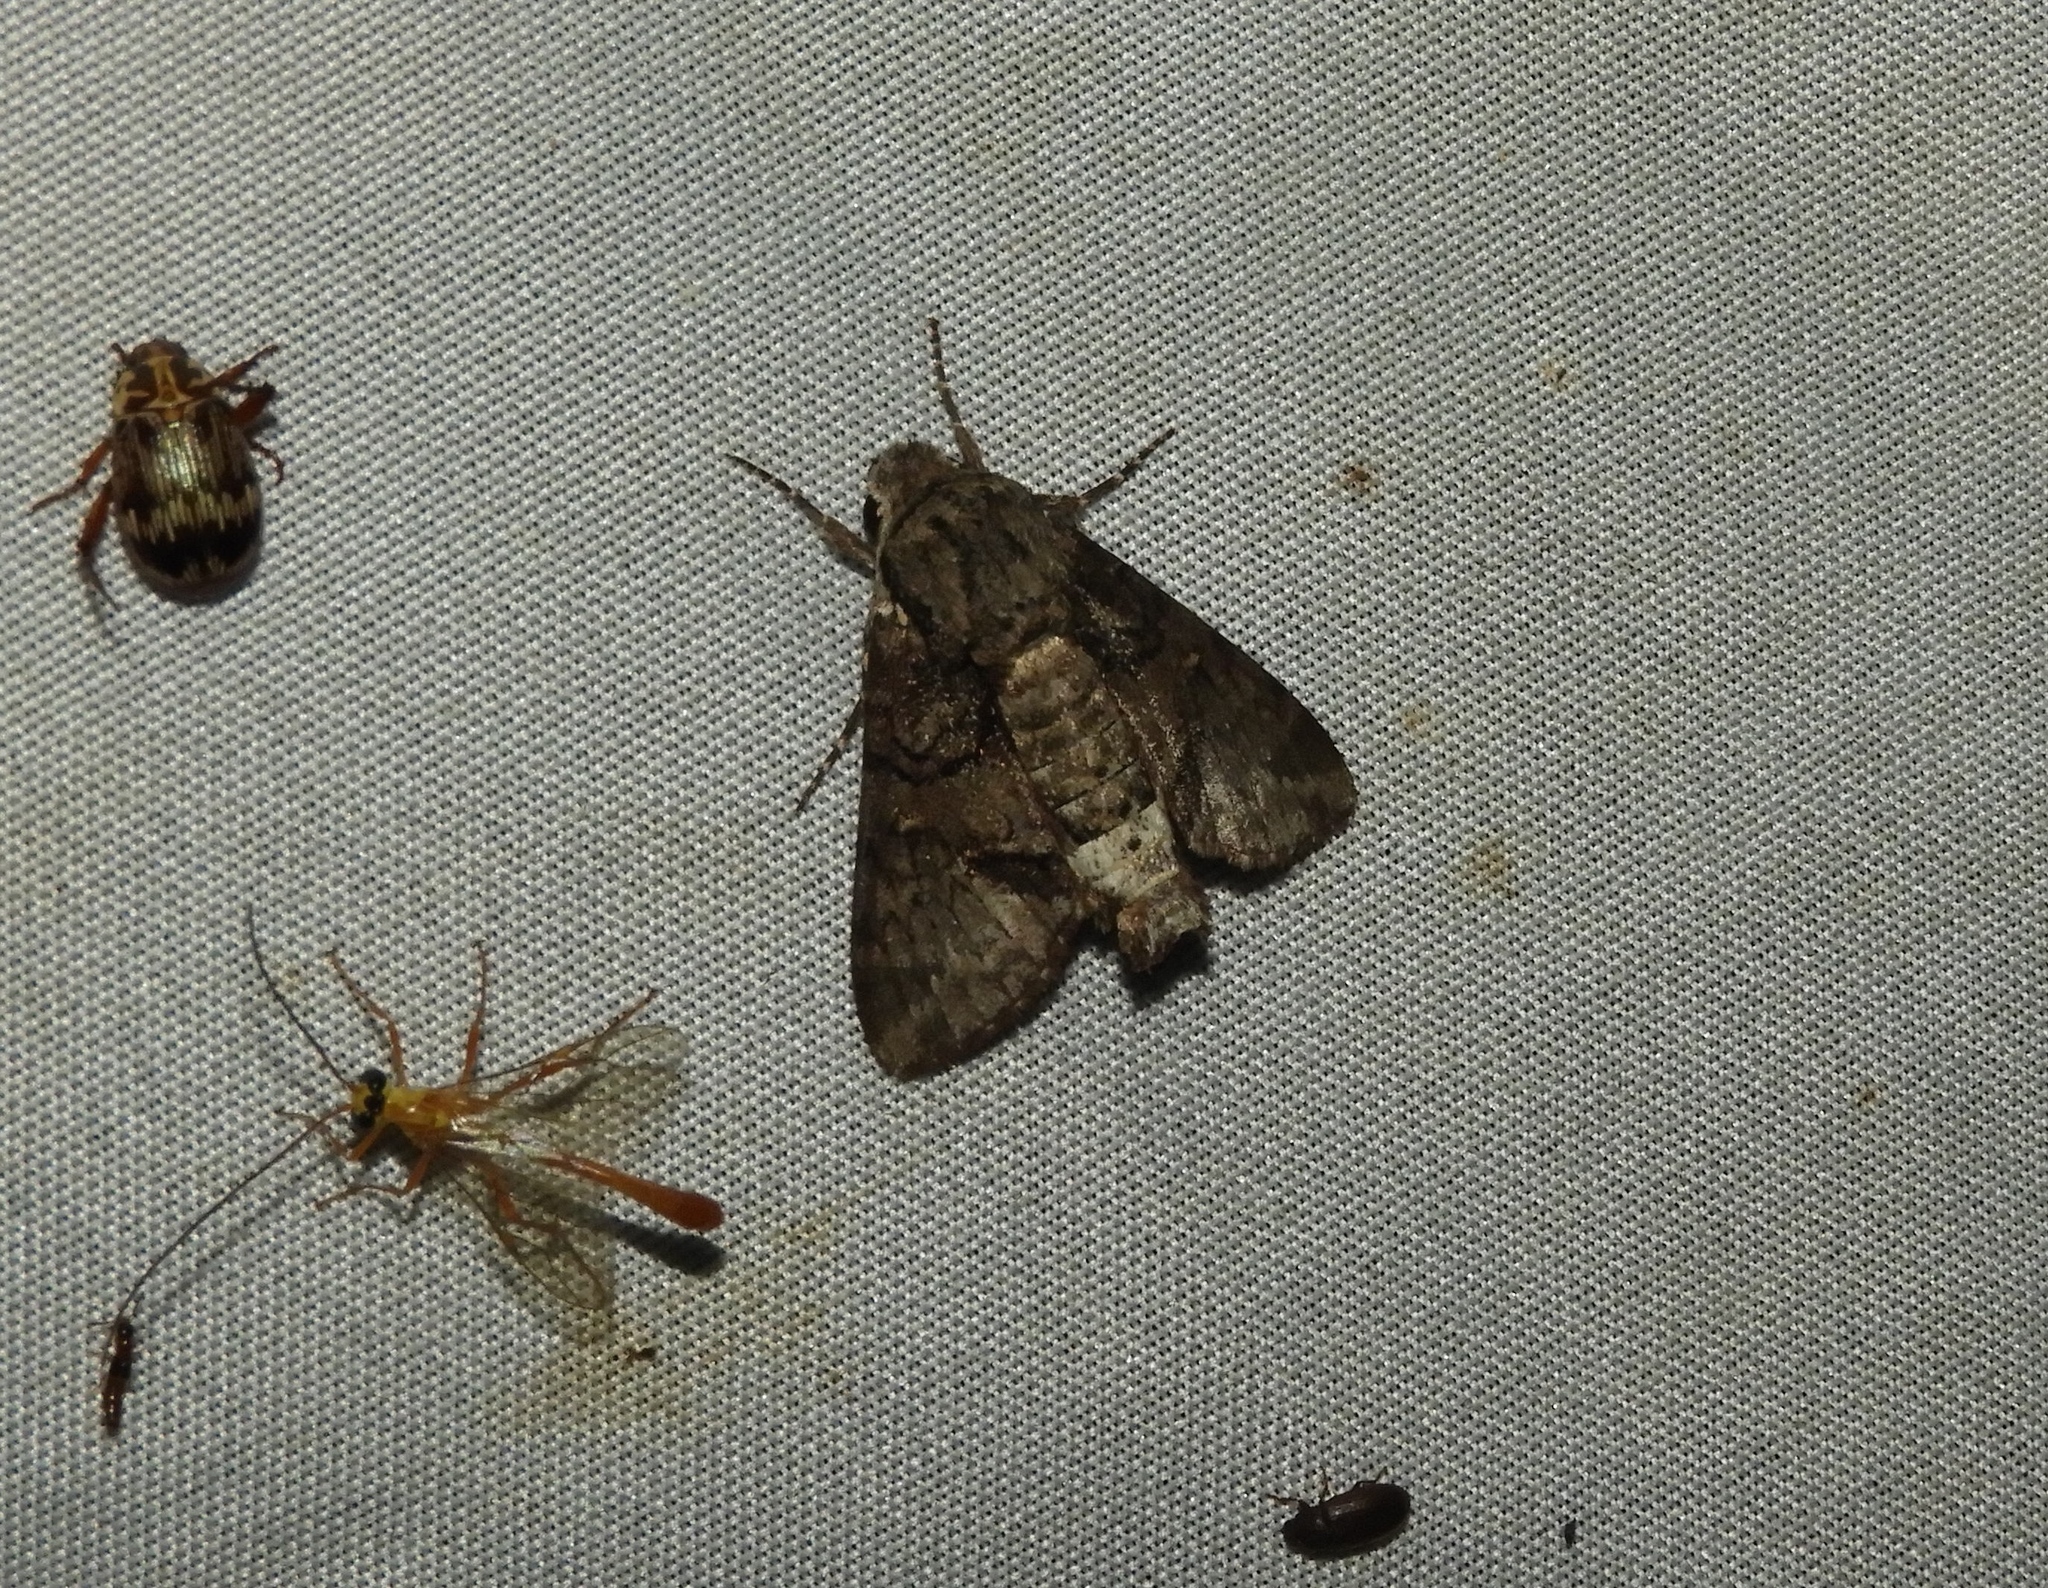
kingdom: Animalia
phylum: Arthropoda
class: Insecta
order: Lepidoptera
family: Sphingidae
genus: Cautethia
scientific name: Cautethia
